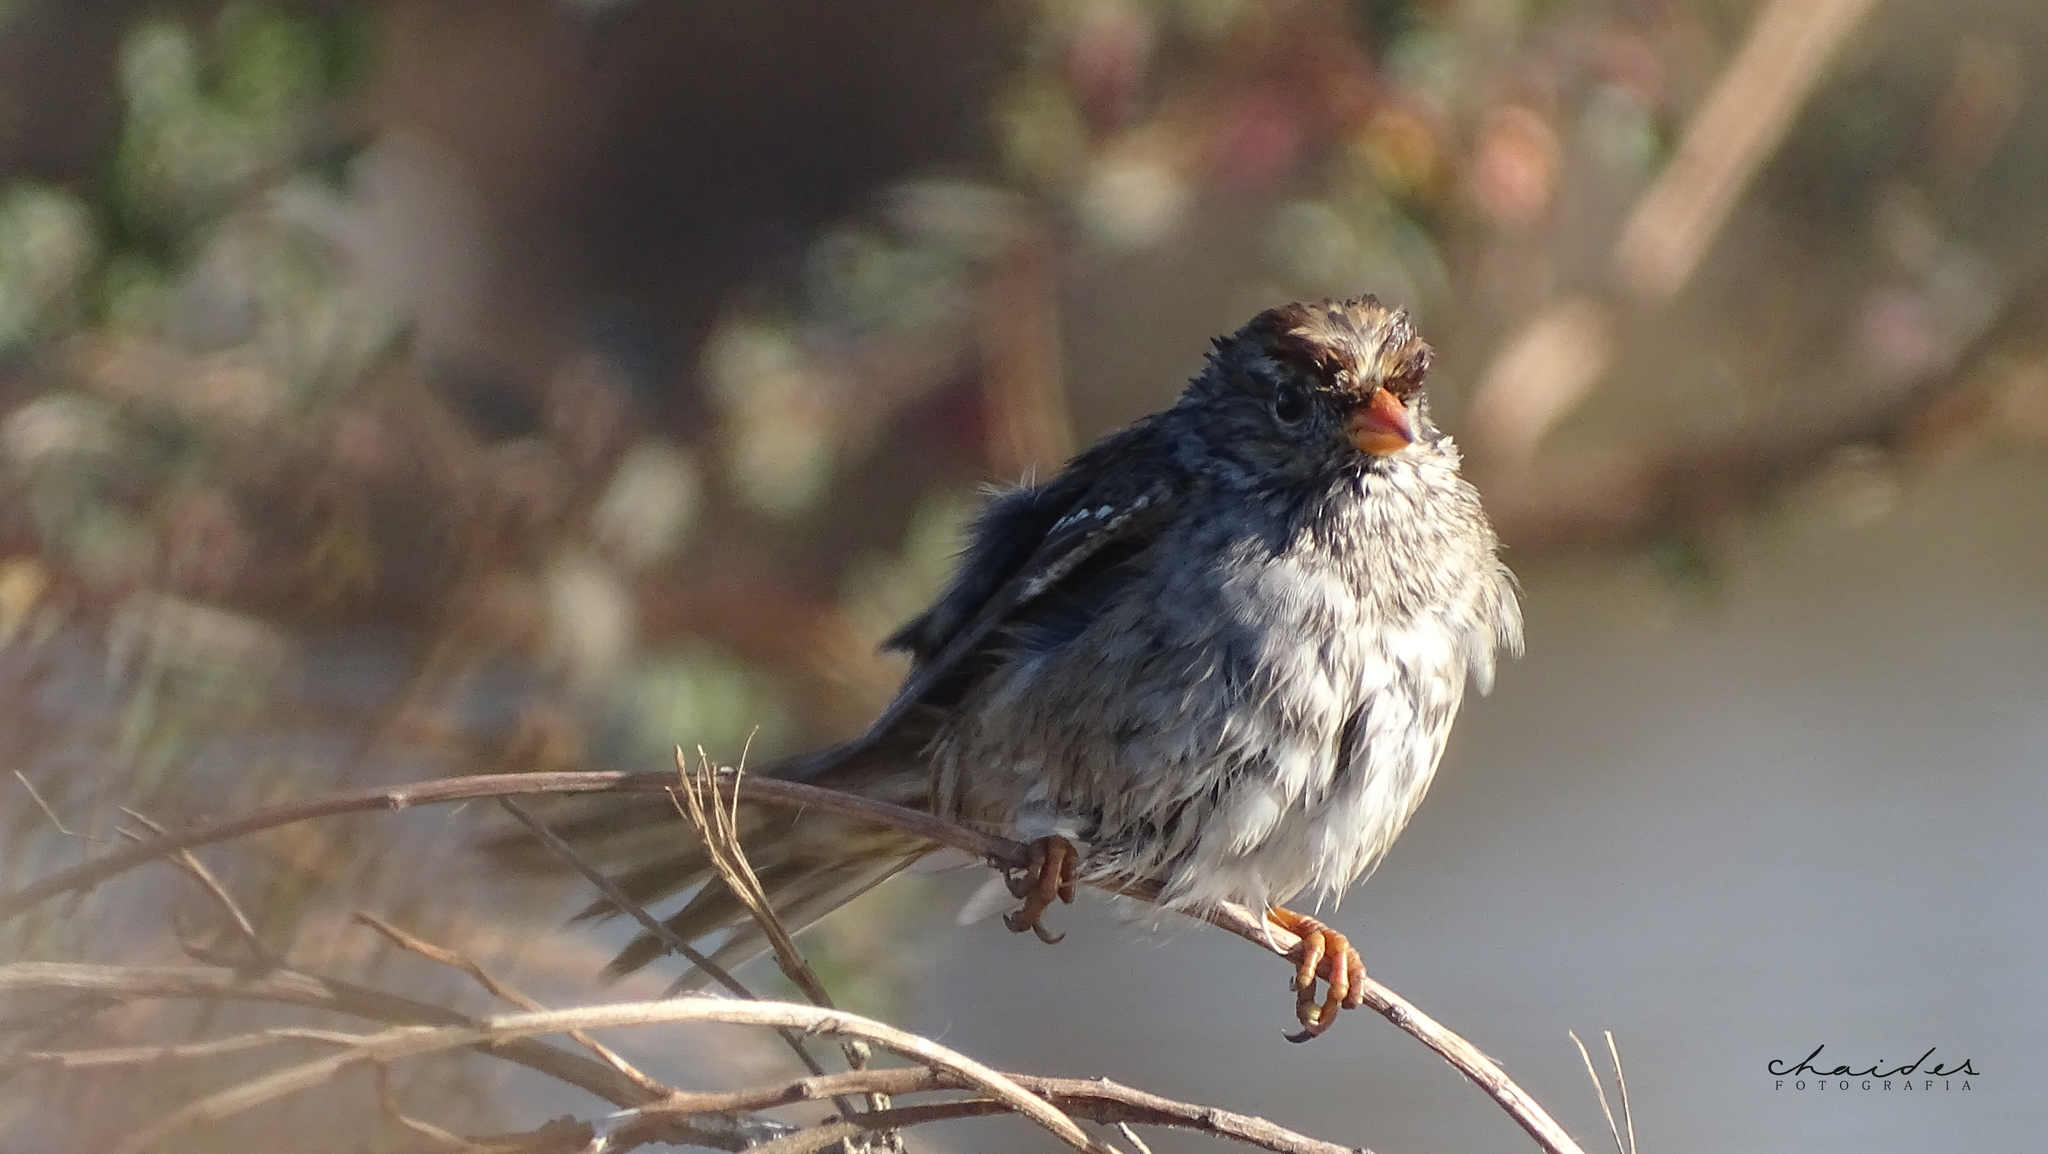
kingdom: Animalia
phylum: Chordata
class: Aves
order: Passeriformes
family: Passerellidae
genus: Zonotrichia
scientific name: Zonotrichia leucophrys
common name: White-crowned sparrow
